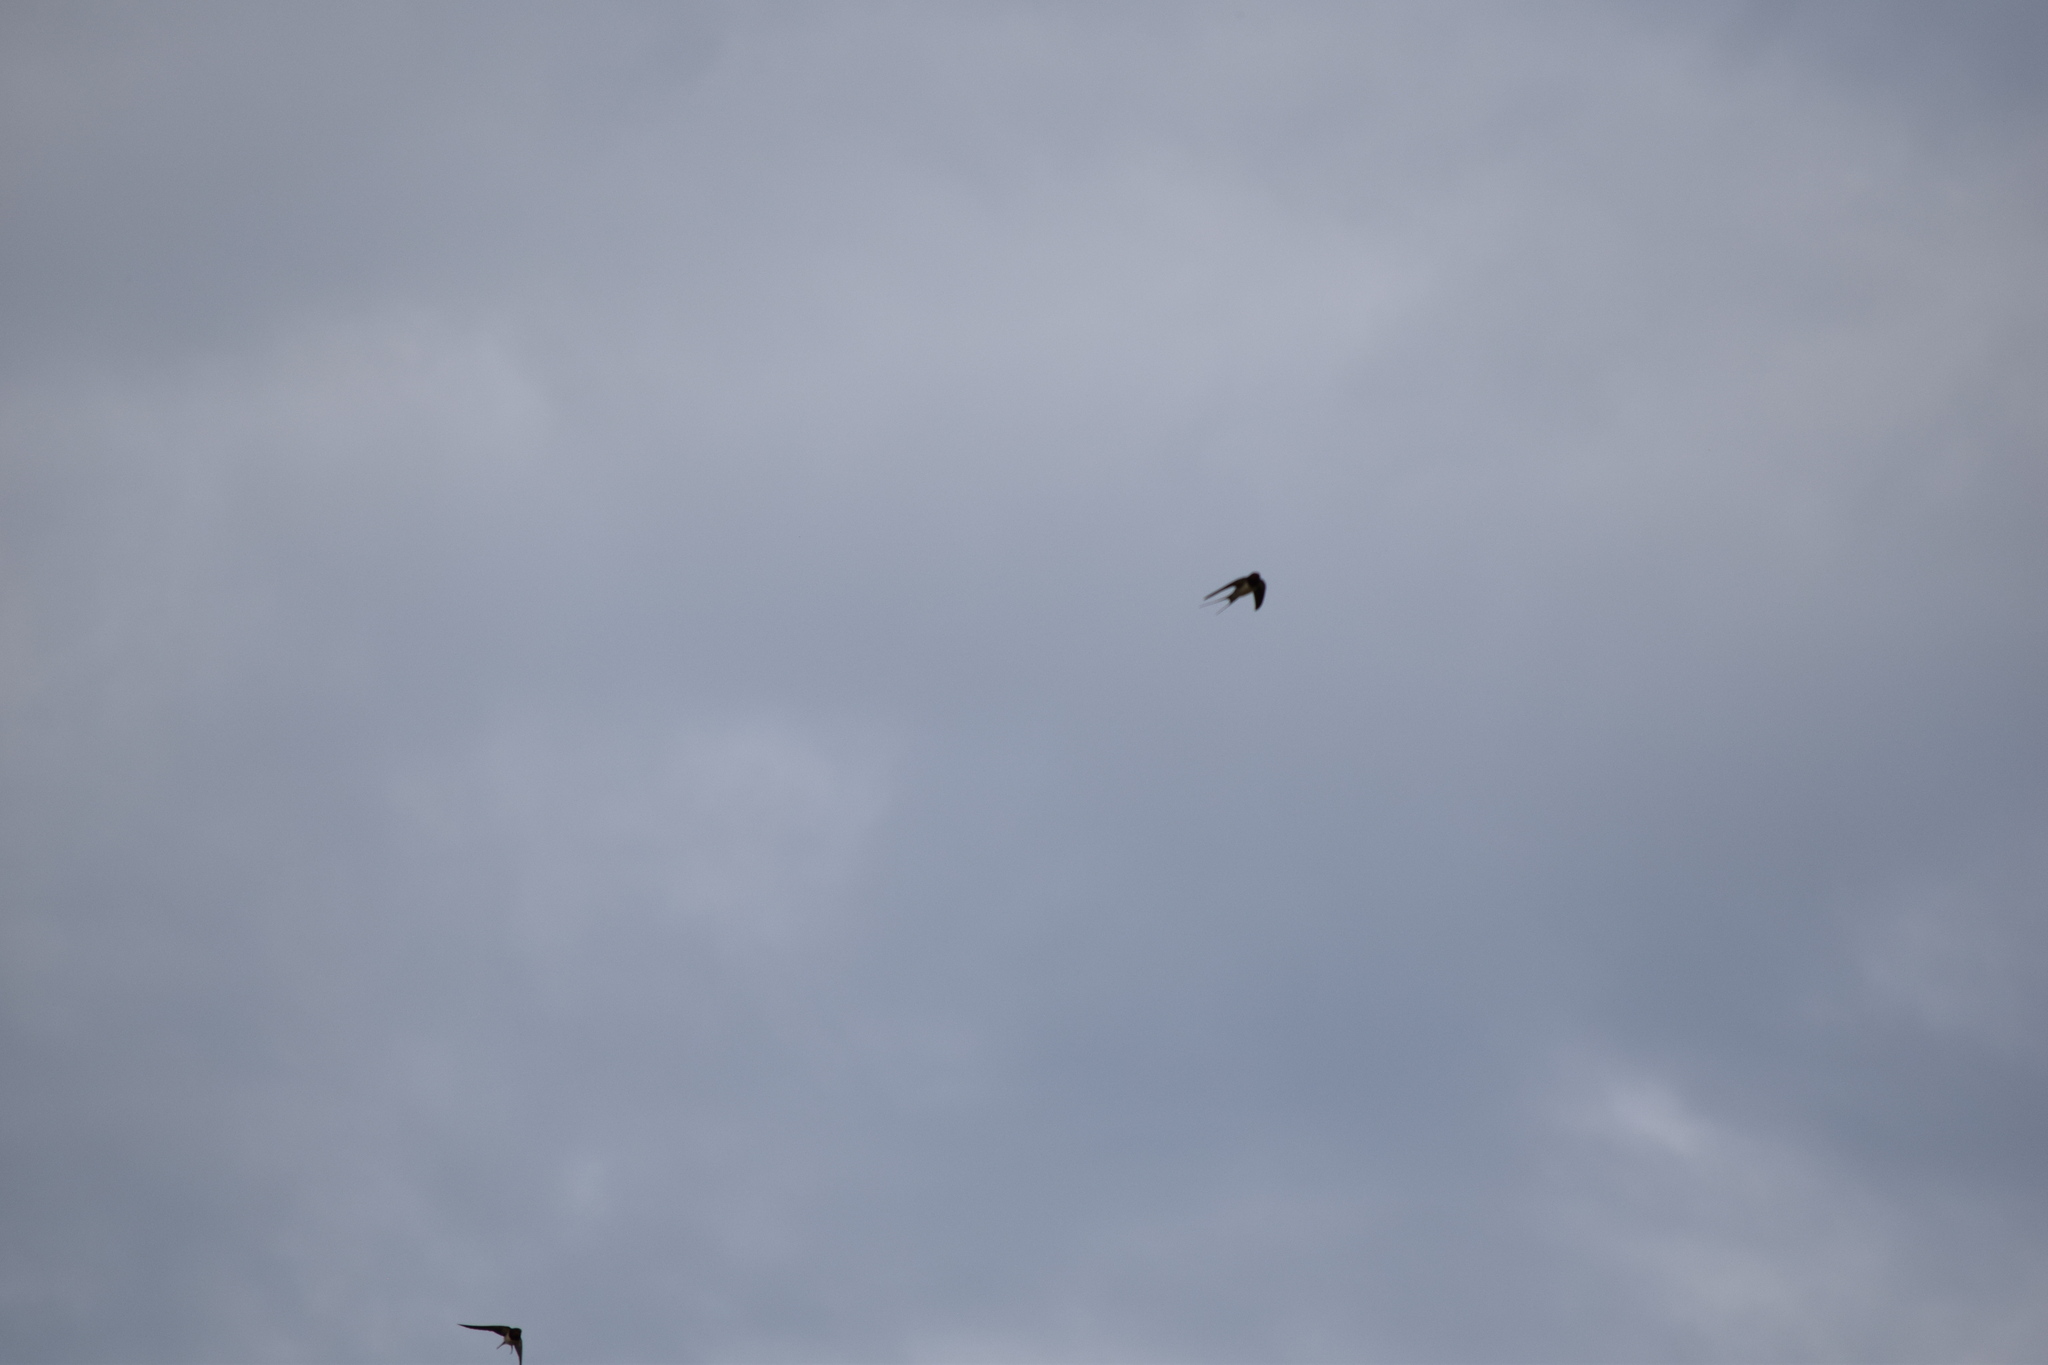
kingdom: Animalia
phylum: Chordata
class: Aves
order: Passeriformes
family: Hirundinidae
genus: Hirundo
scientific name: Hirundo rustica
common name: Barn swallow
